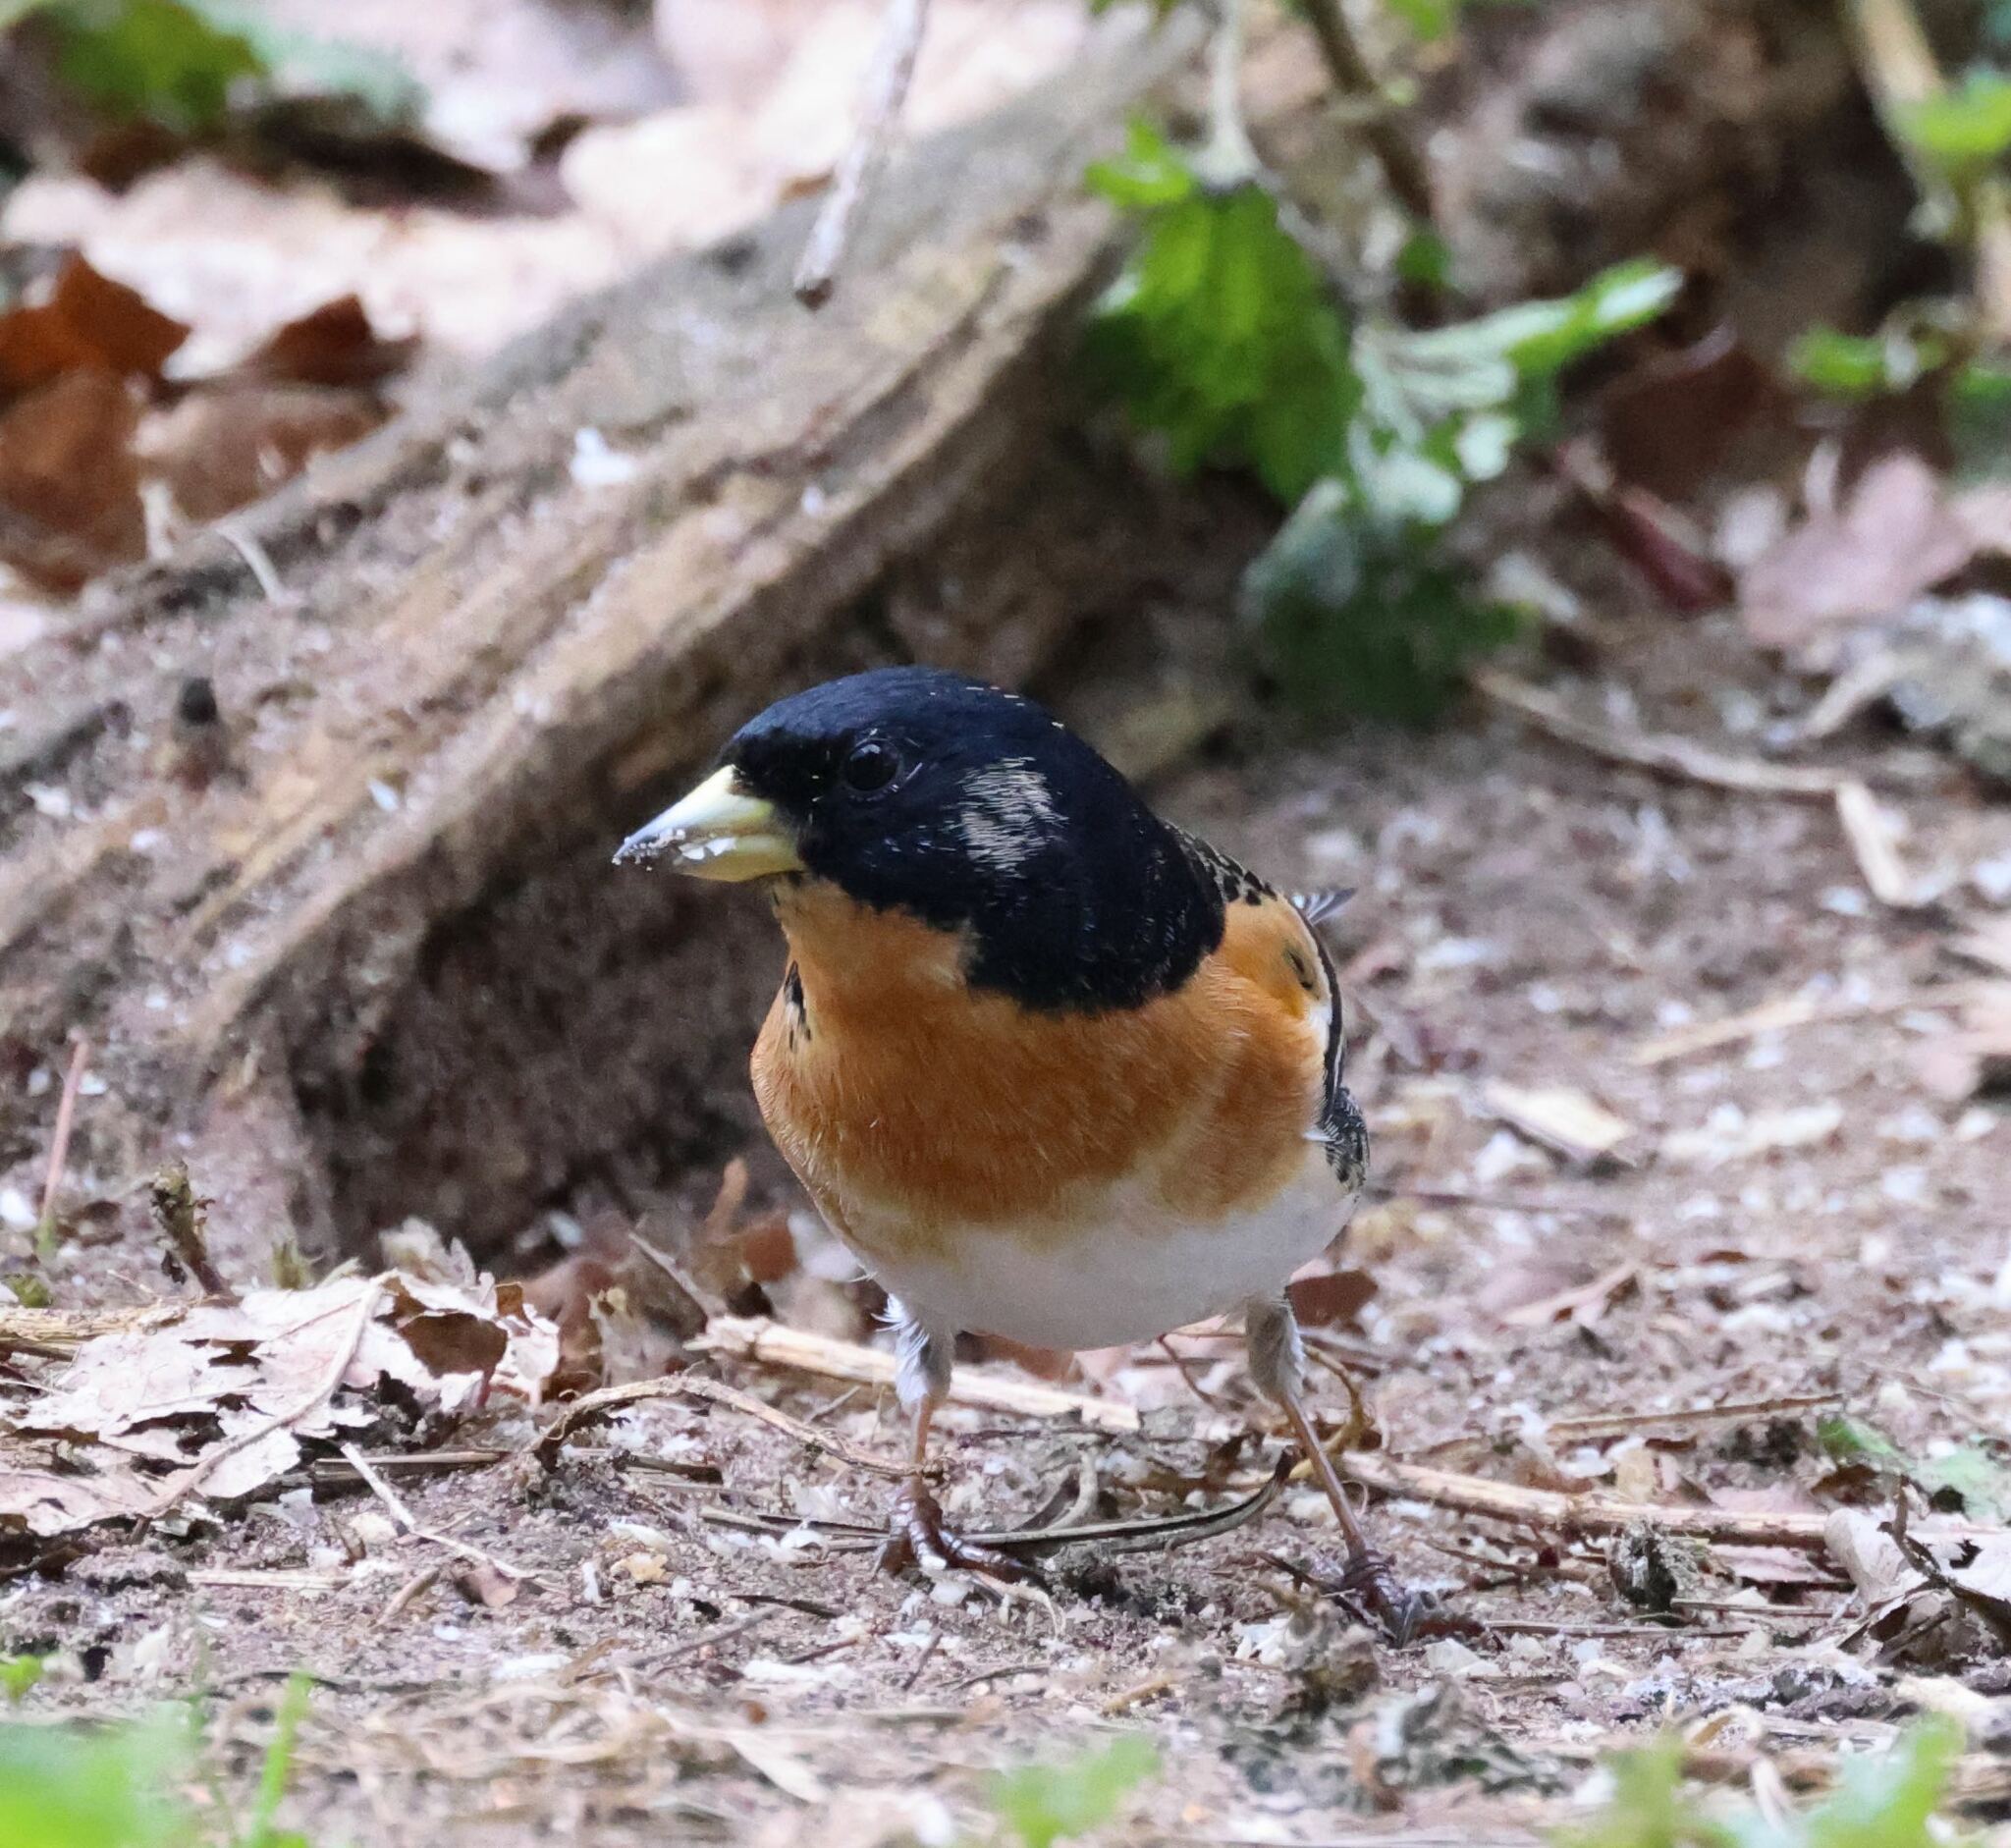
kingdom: Animalia
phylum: Chordata
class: Aves
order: Passeriformes
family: Fringillidae
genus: Fringilla
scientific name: Fringilla montifringilla
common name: Brambling
